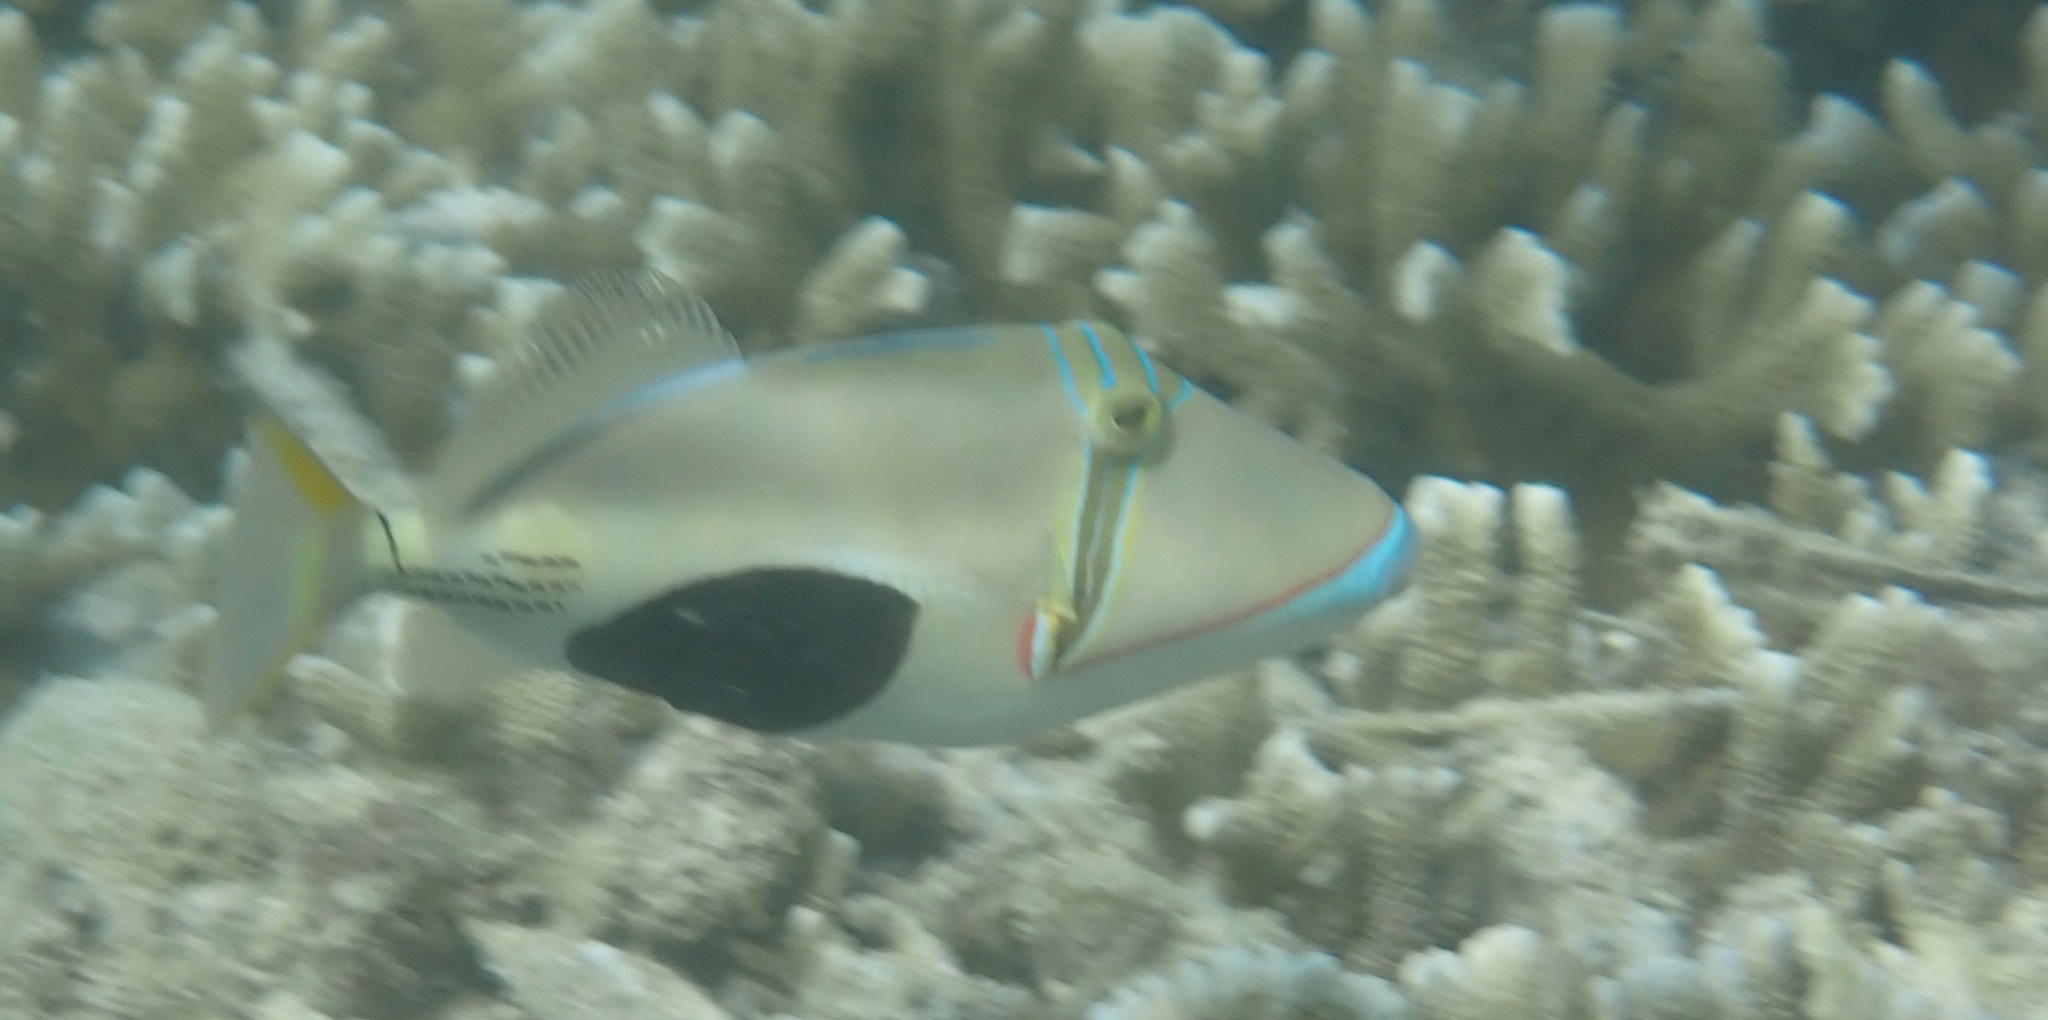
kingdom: Animalia
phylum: Chordata
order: Tetraodontiformes
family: Balistidae
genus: Rhinecanthus
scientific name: Rhinecanthus verrucosus
